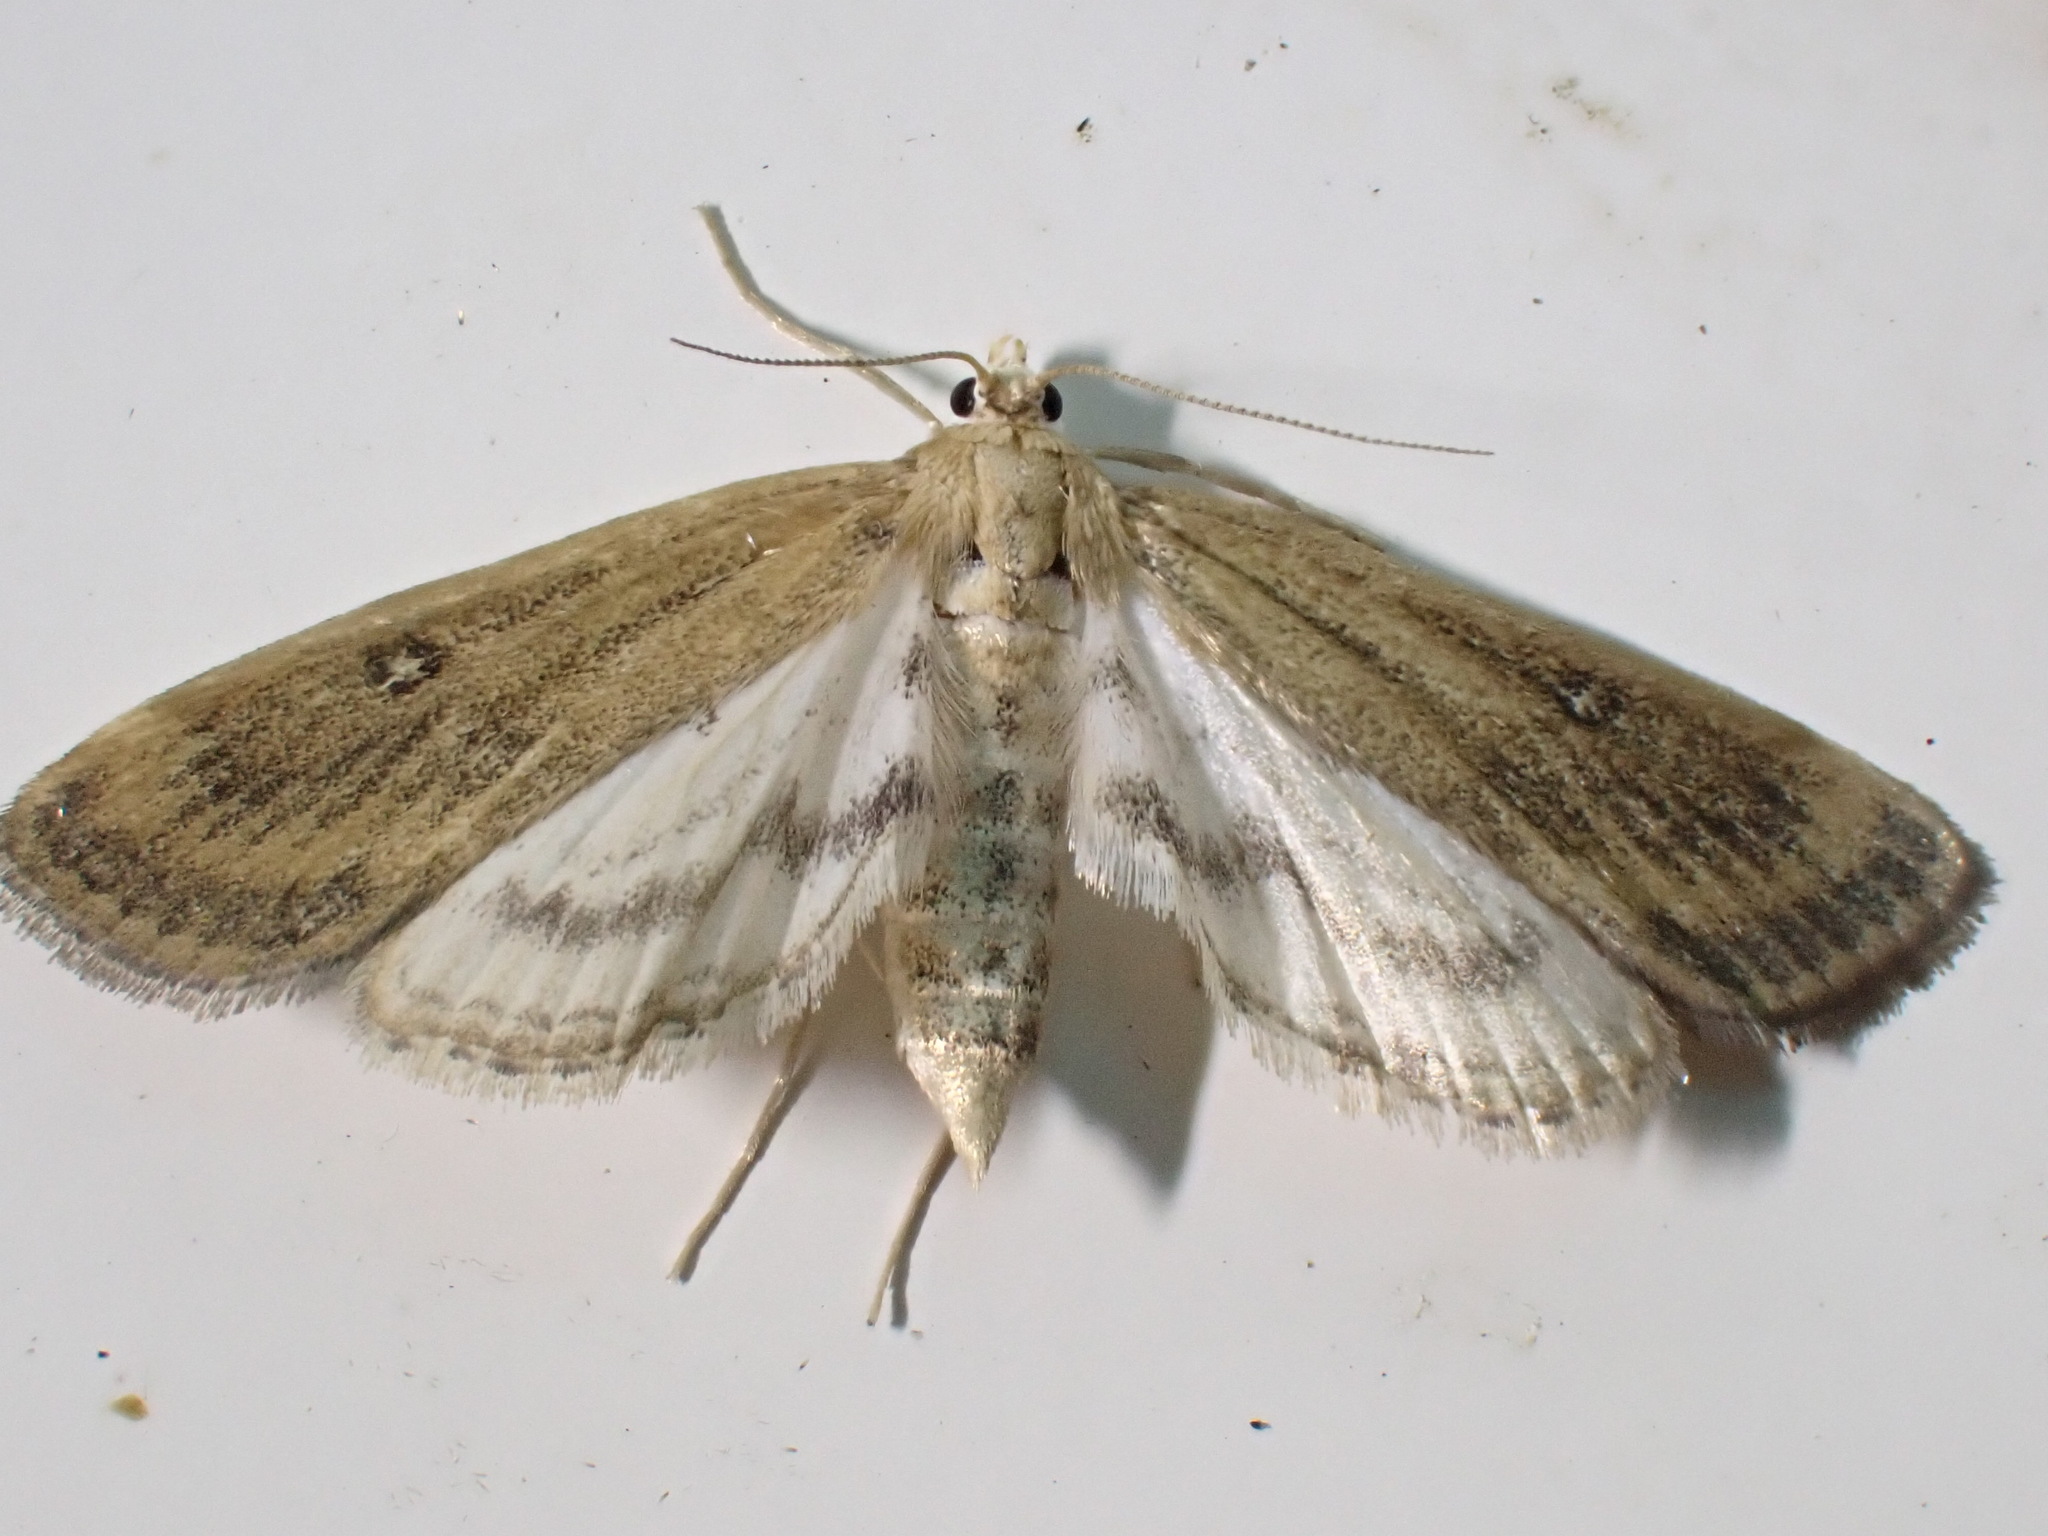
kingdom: Animalia
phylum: Arthropoda
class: Insecta
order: Lepidoptera
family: Crambidae
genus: Parapoynx
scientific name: Parapoynx stratiotata
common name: Ringed china-mark
